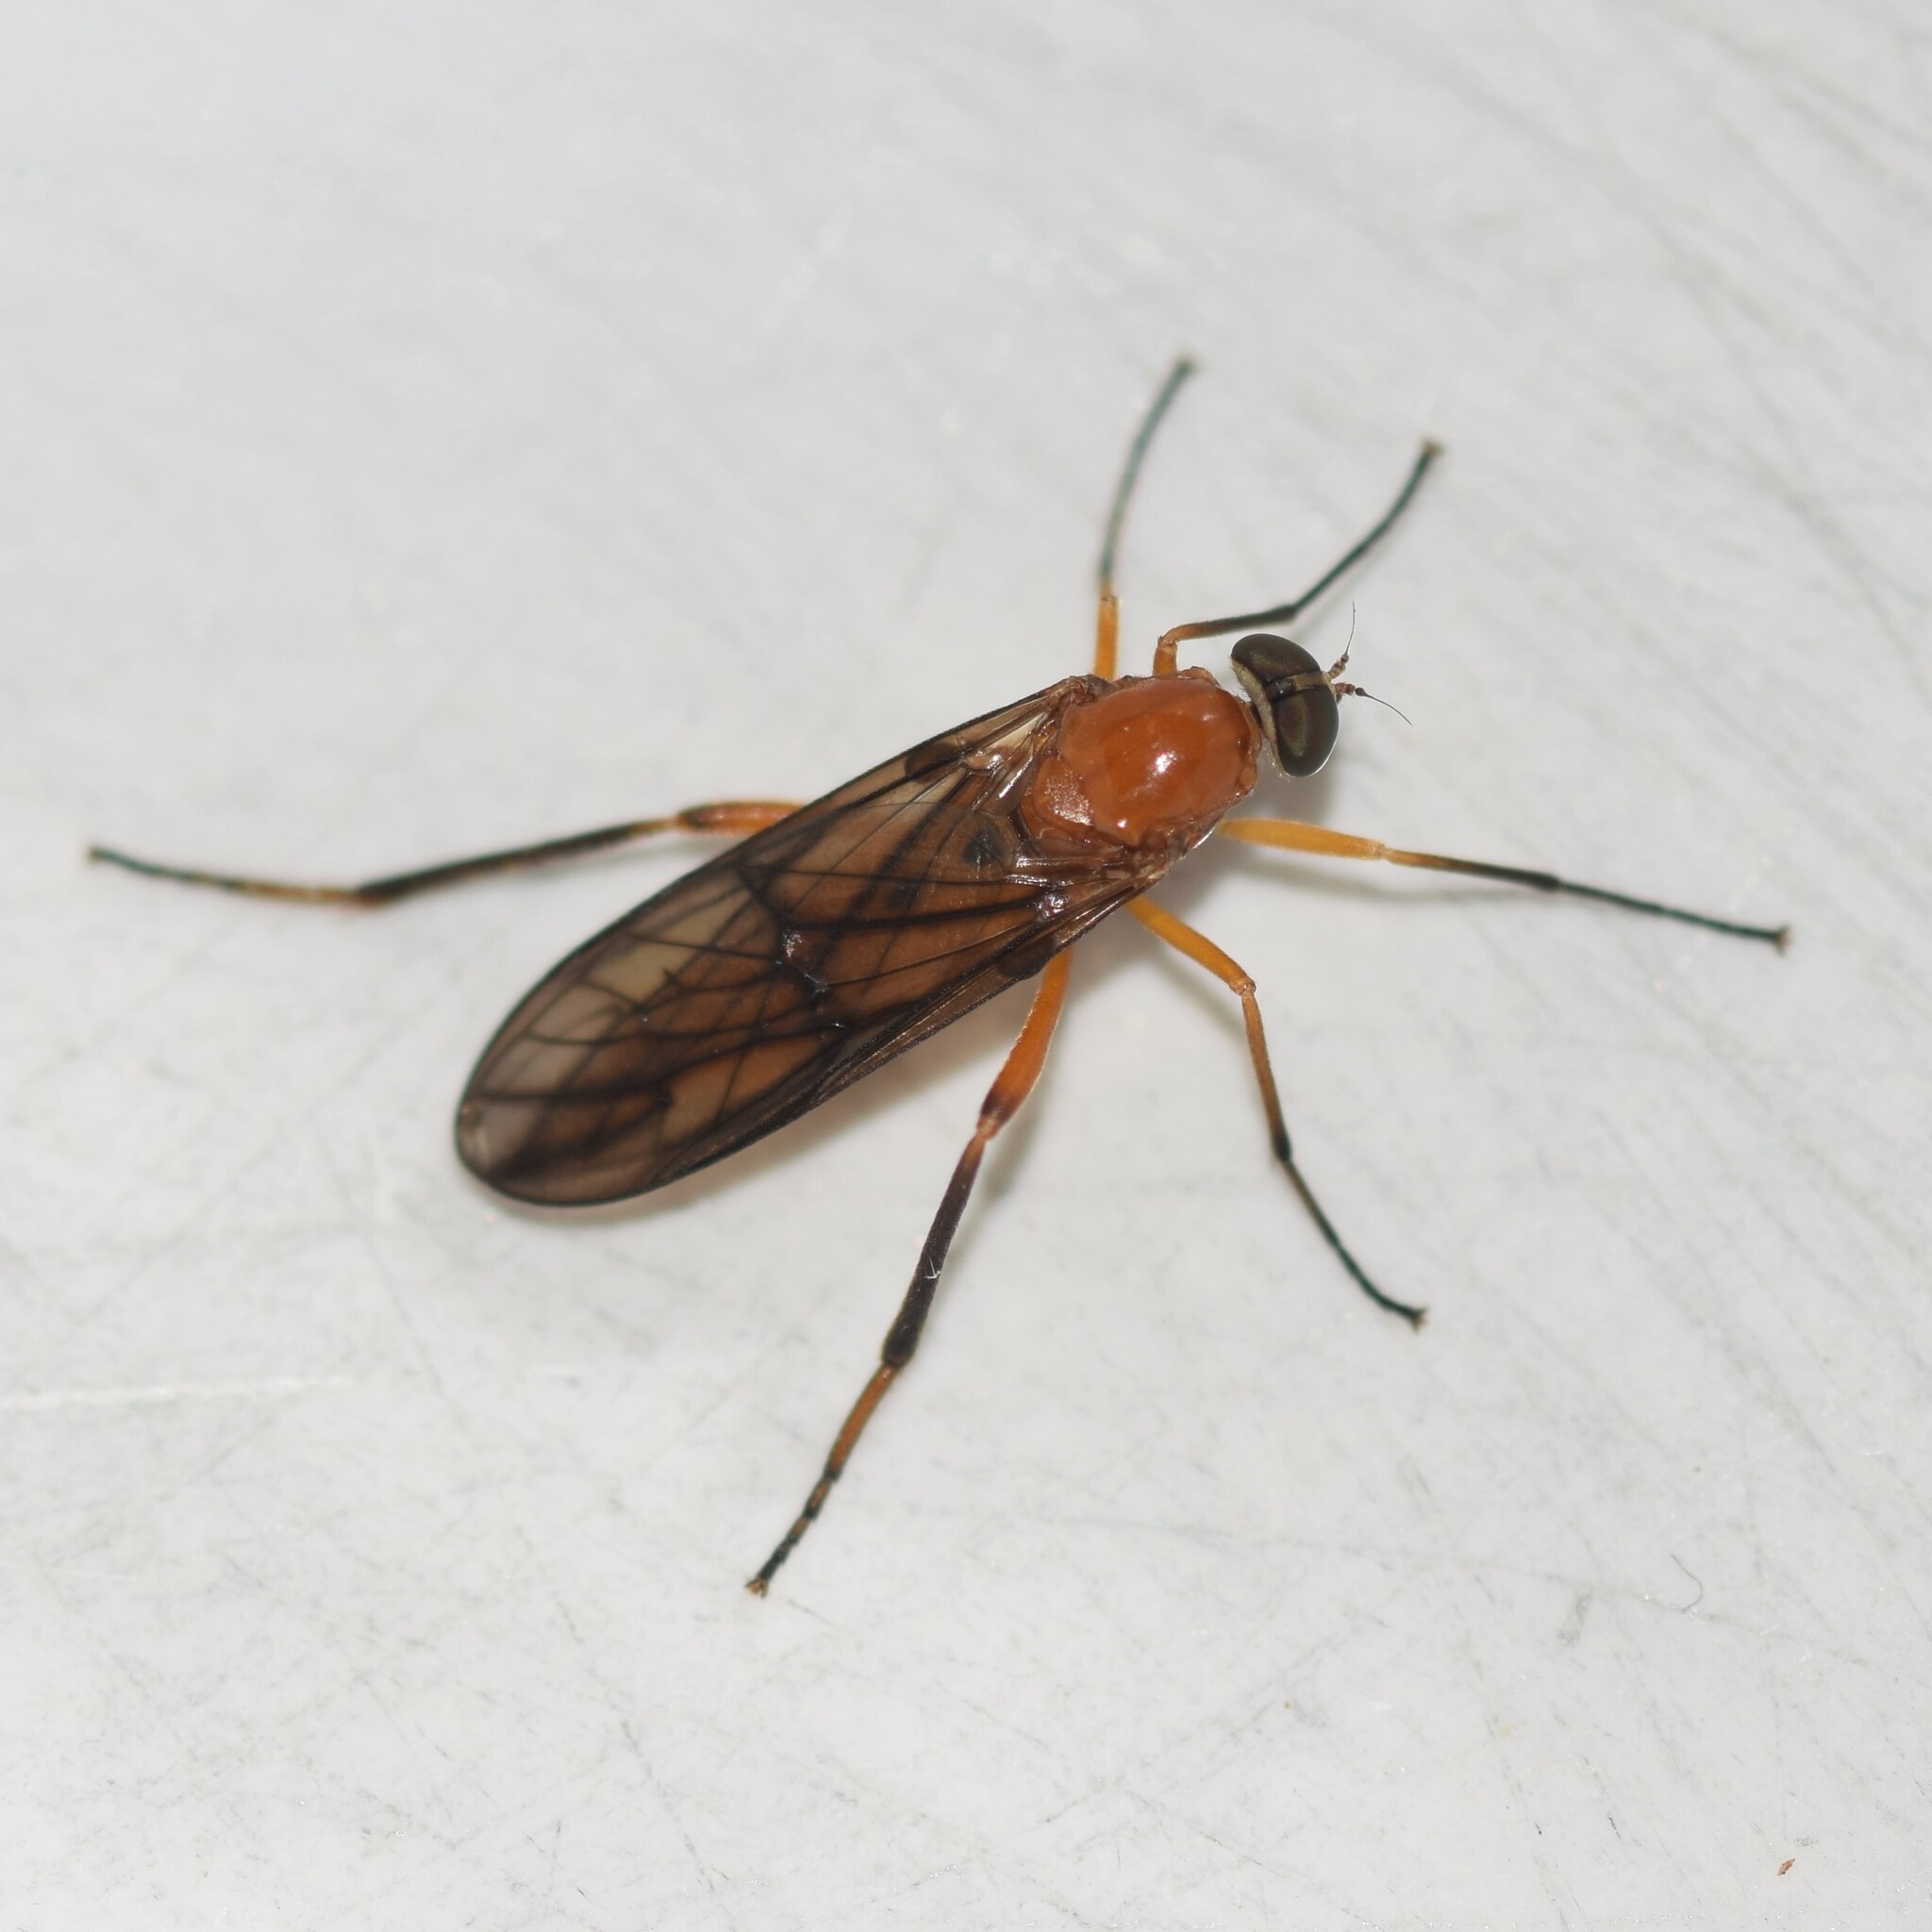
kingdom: Animalia
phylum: Arthropoda
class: Insecta
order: Diptera
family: Xylophagidae
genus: Dialysis
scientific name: Dialysis rufithorax
